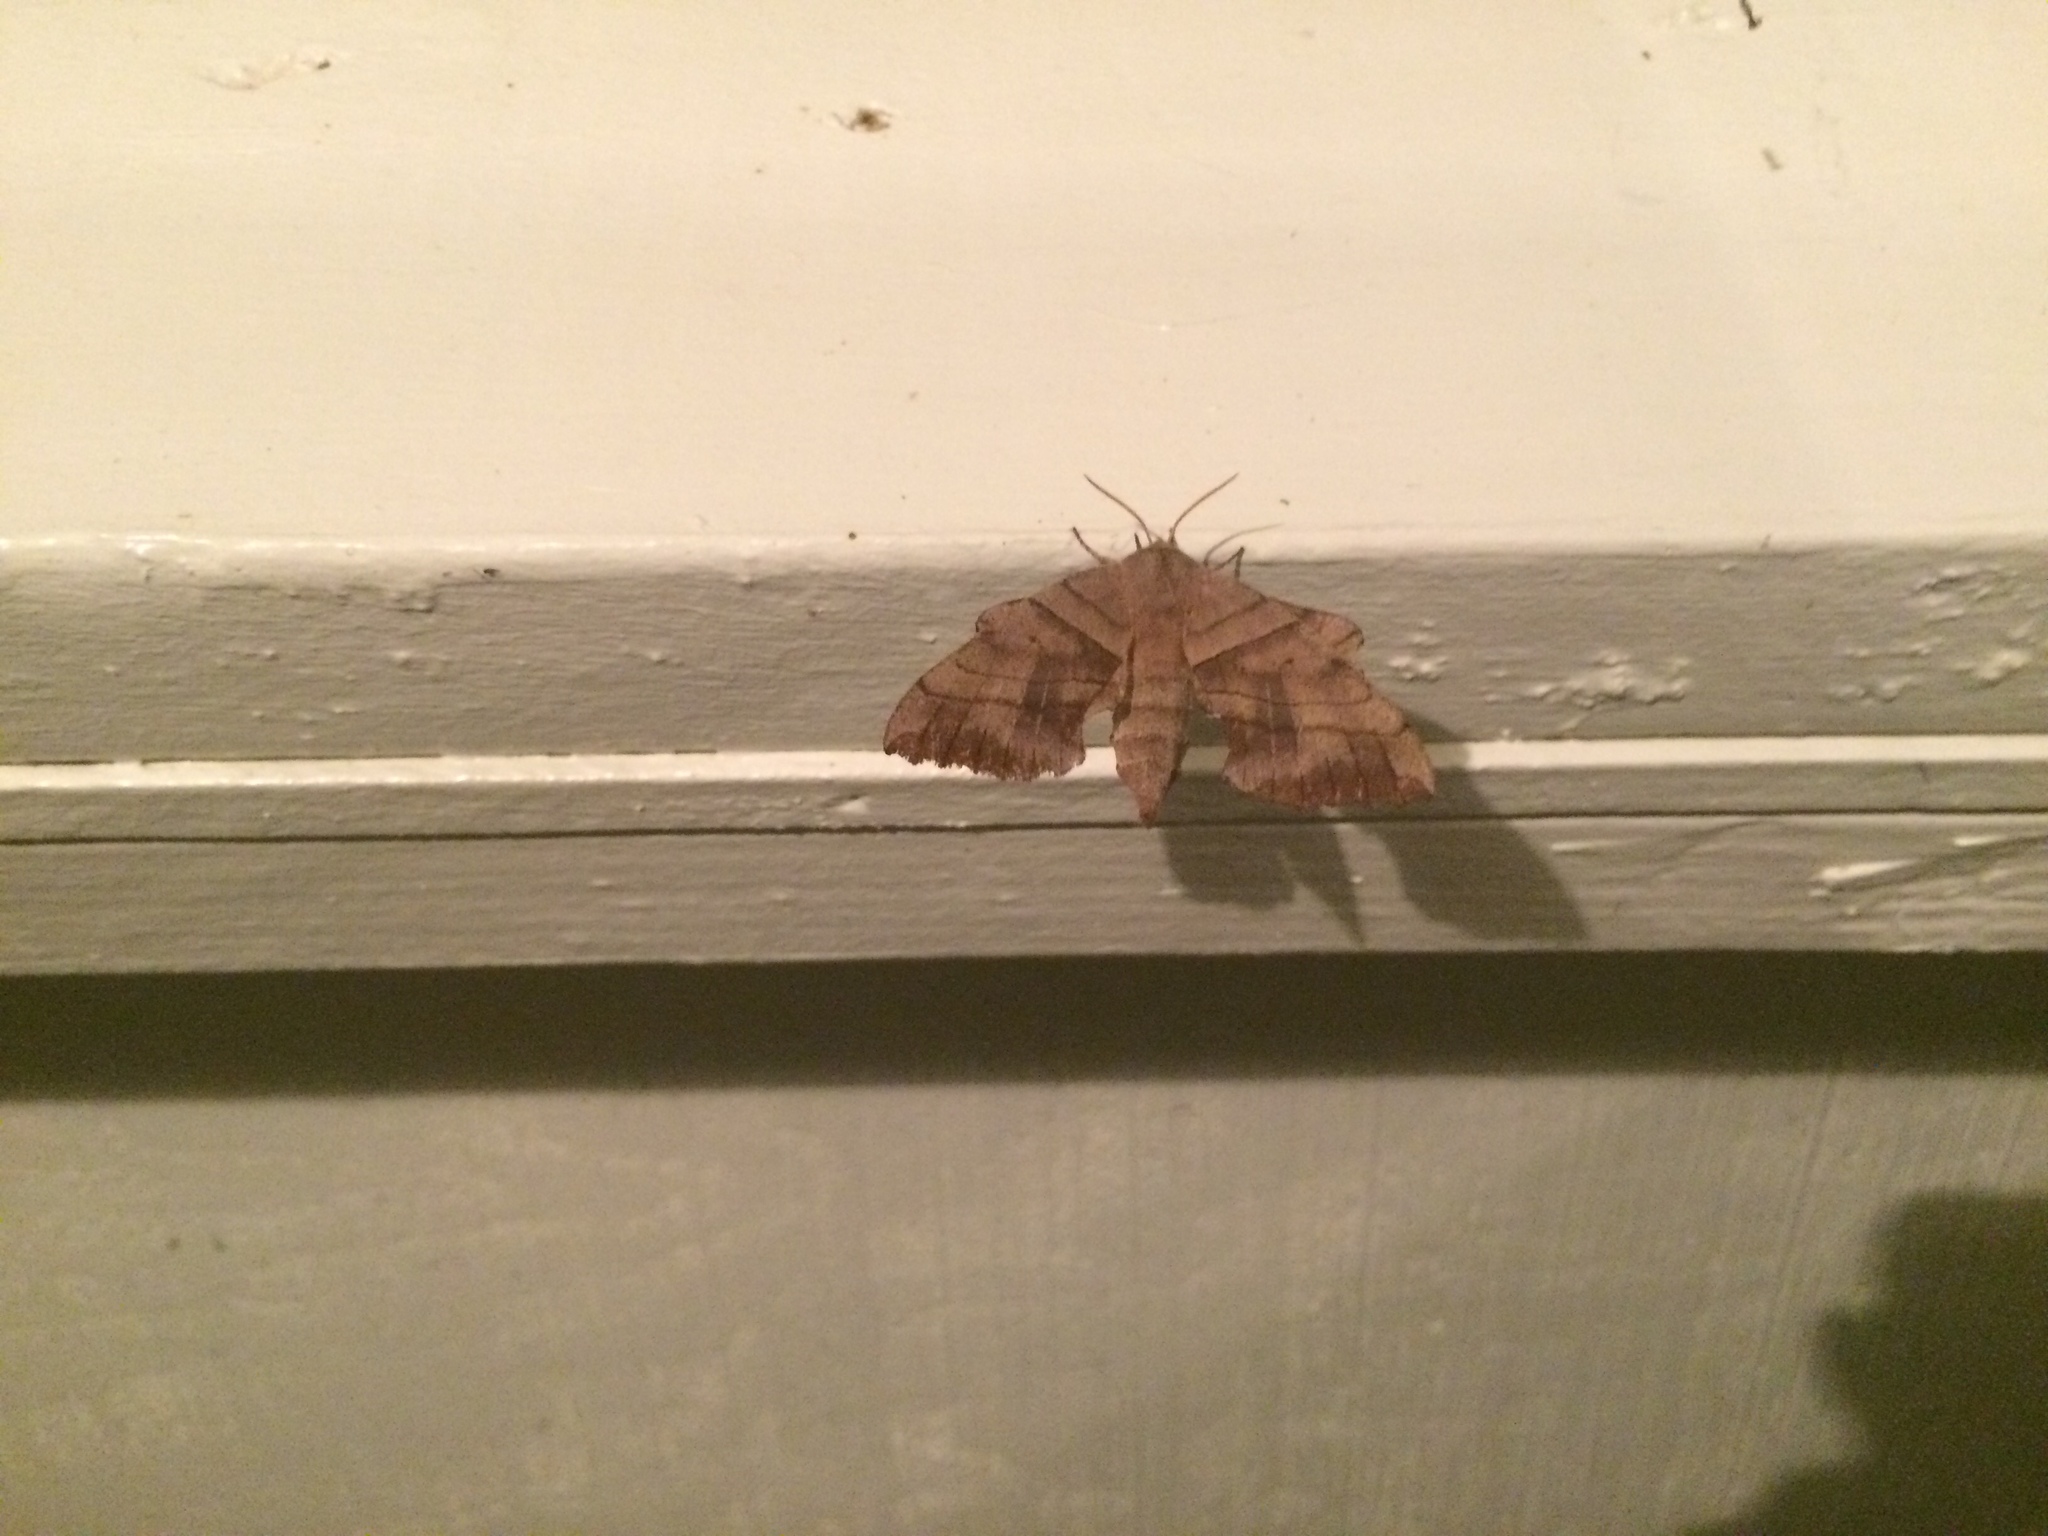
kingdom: Animalia
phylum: Arthropoda
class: Insecta
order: Lepidoptera
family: Sphingidae
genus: Amorpha
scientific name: Amorpha juglandis
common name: Walnut sphinx
